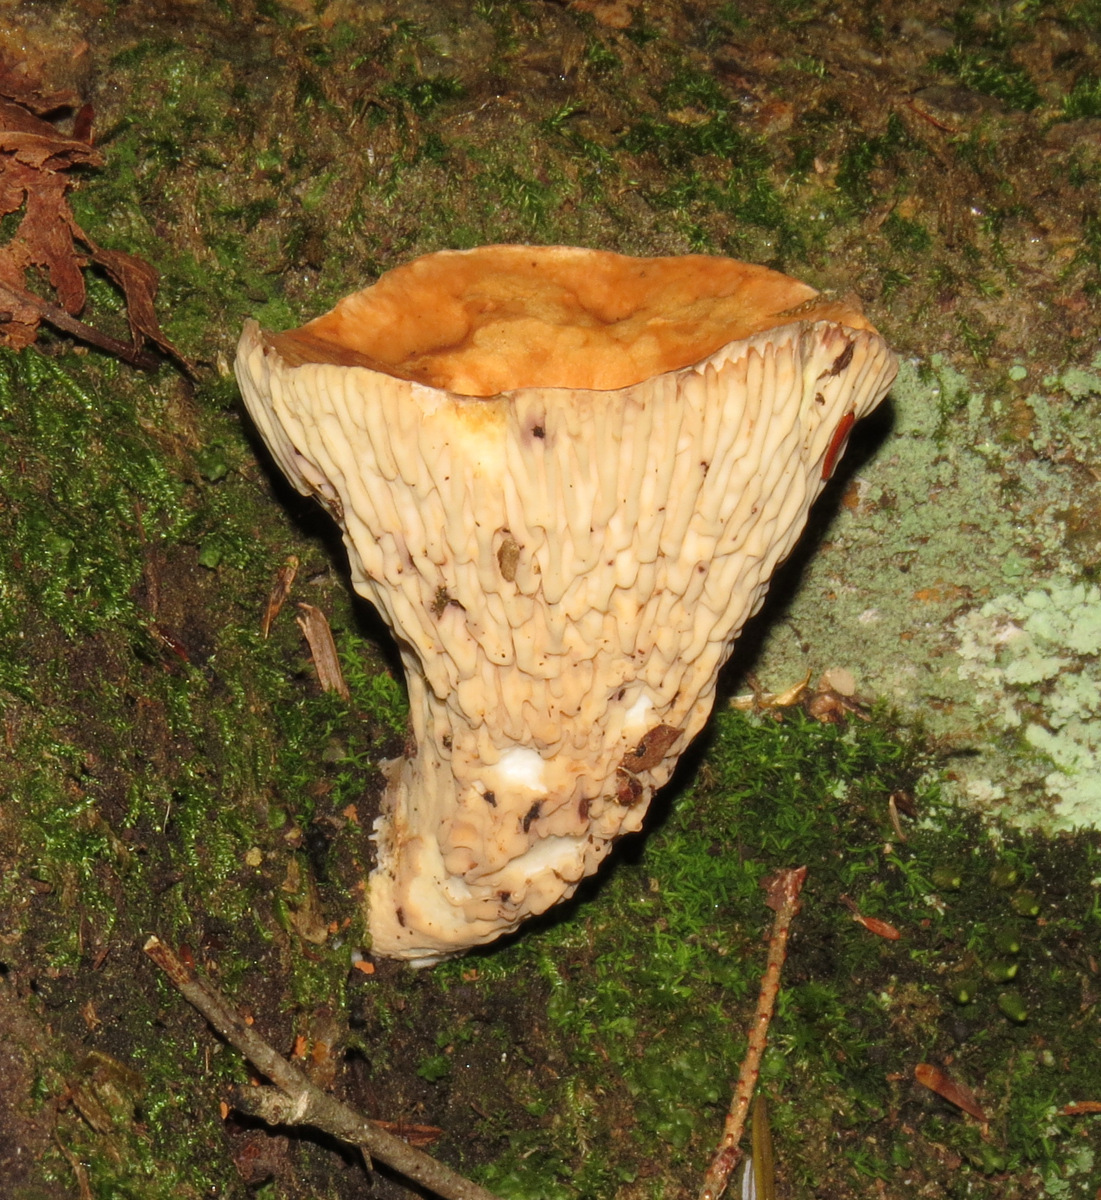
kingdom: Fungi
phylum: Basidiomycota
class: Agaricomycetes
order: Gomphales
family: Gomphaceae
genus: Turbinellus
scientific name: Turbinellus floccosus
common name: Scaly chanterelle
